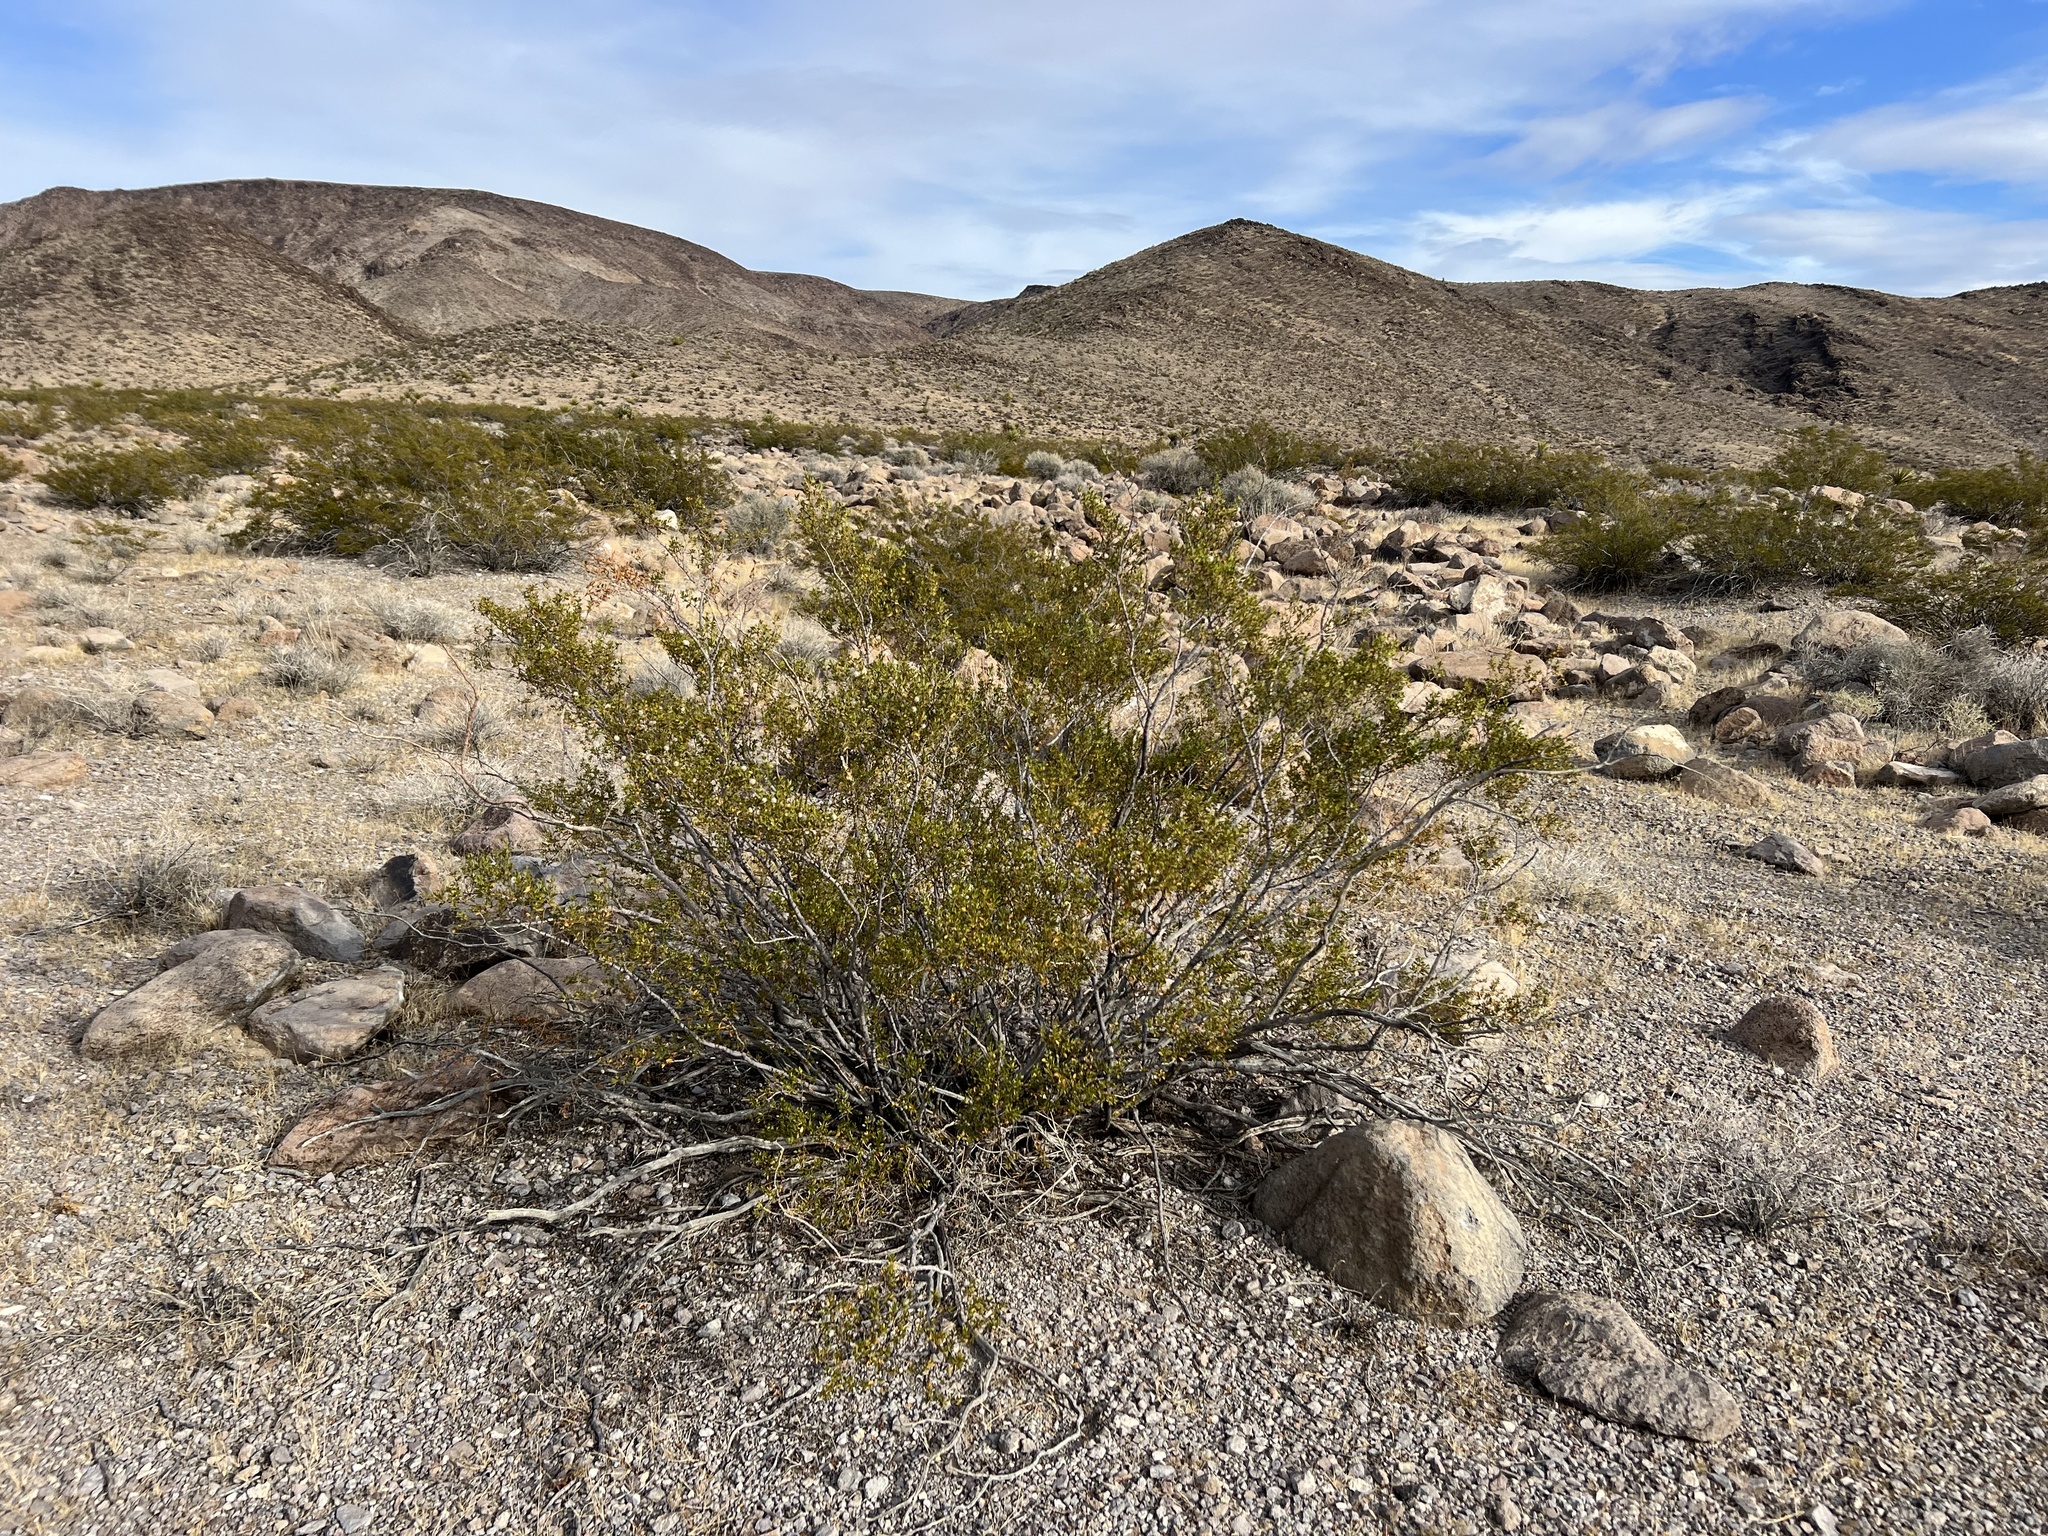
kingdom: Plantae
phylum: Tracheophyta
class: Magnoliopsida
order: Zygophyllales
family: Zygophyllaceae
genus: Larrea
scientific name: Larrea tridentata
